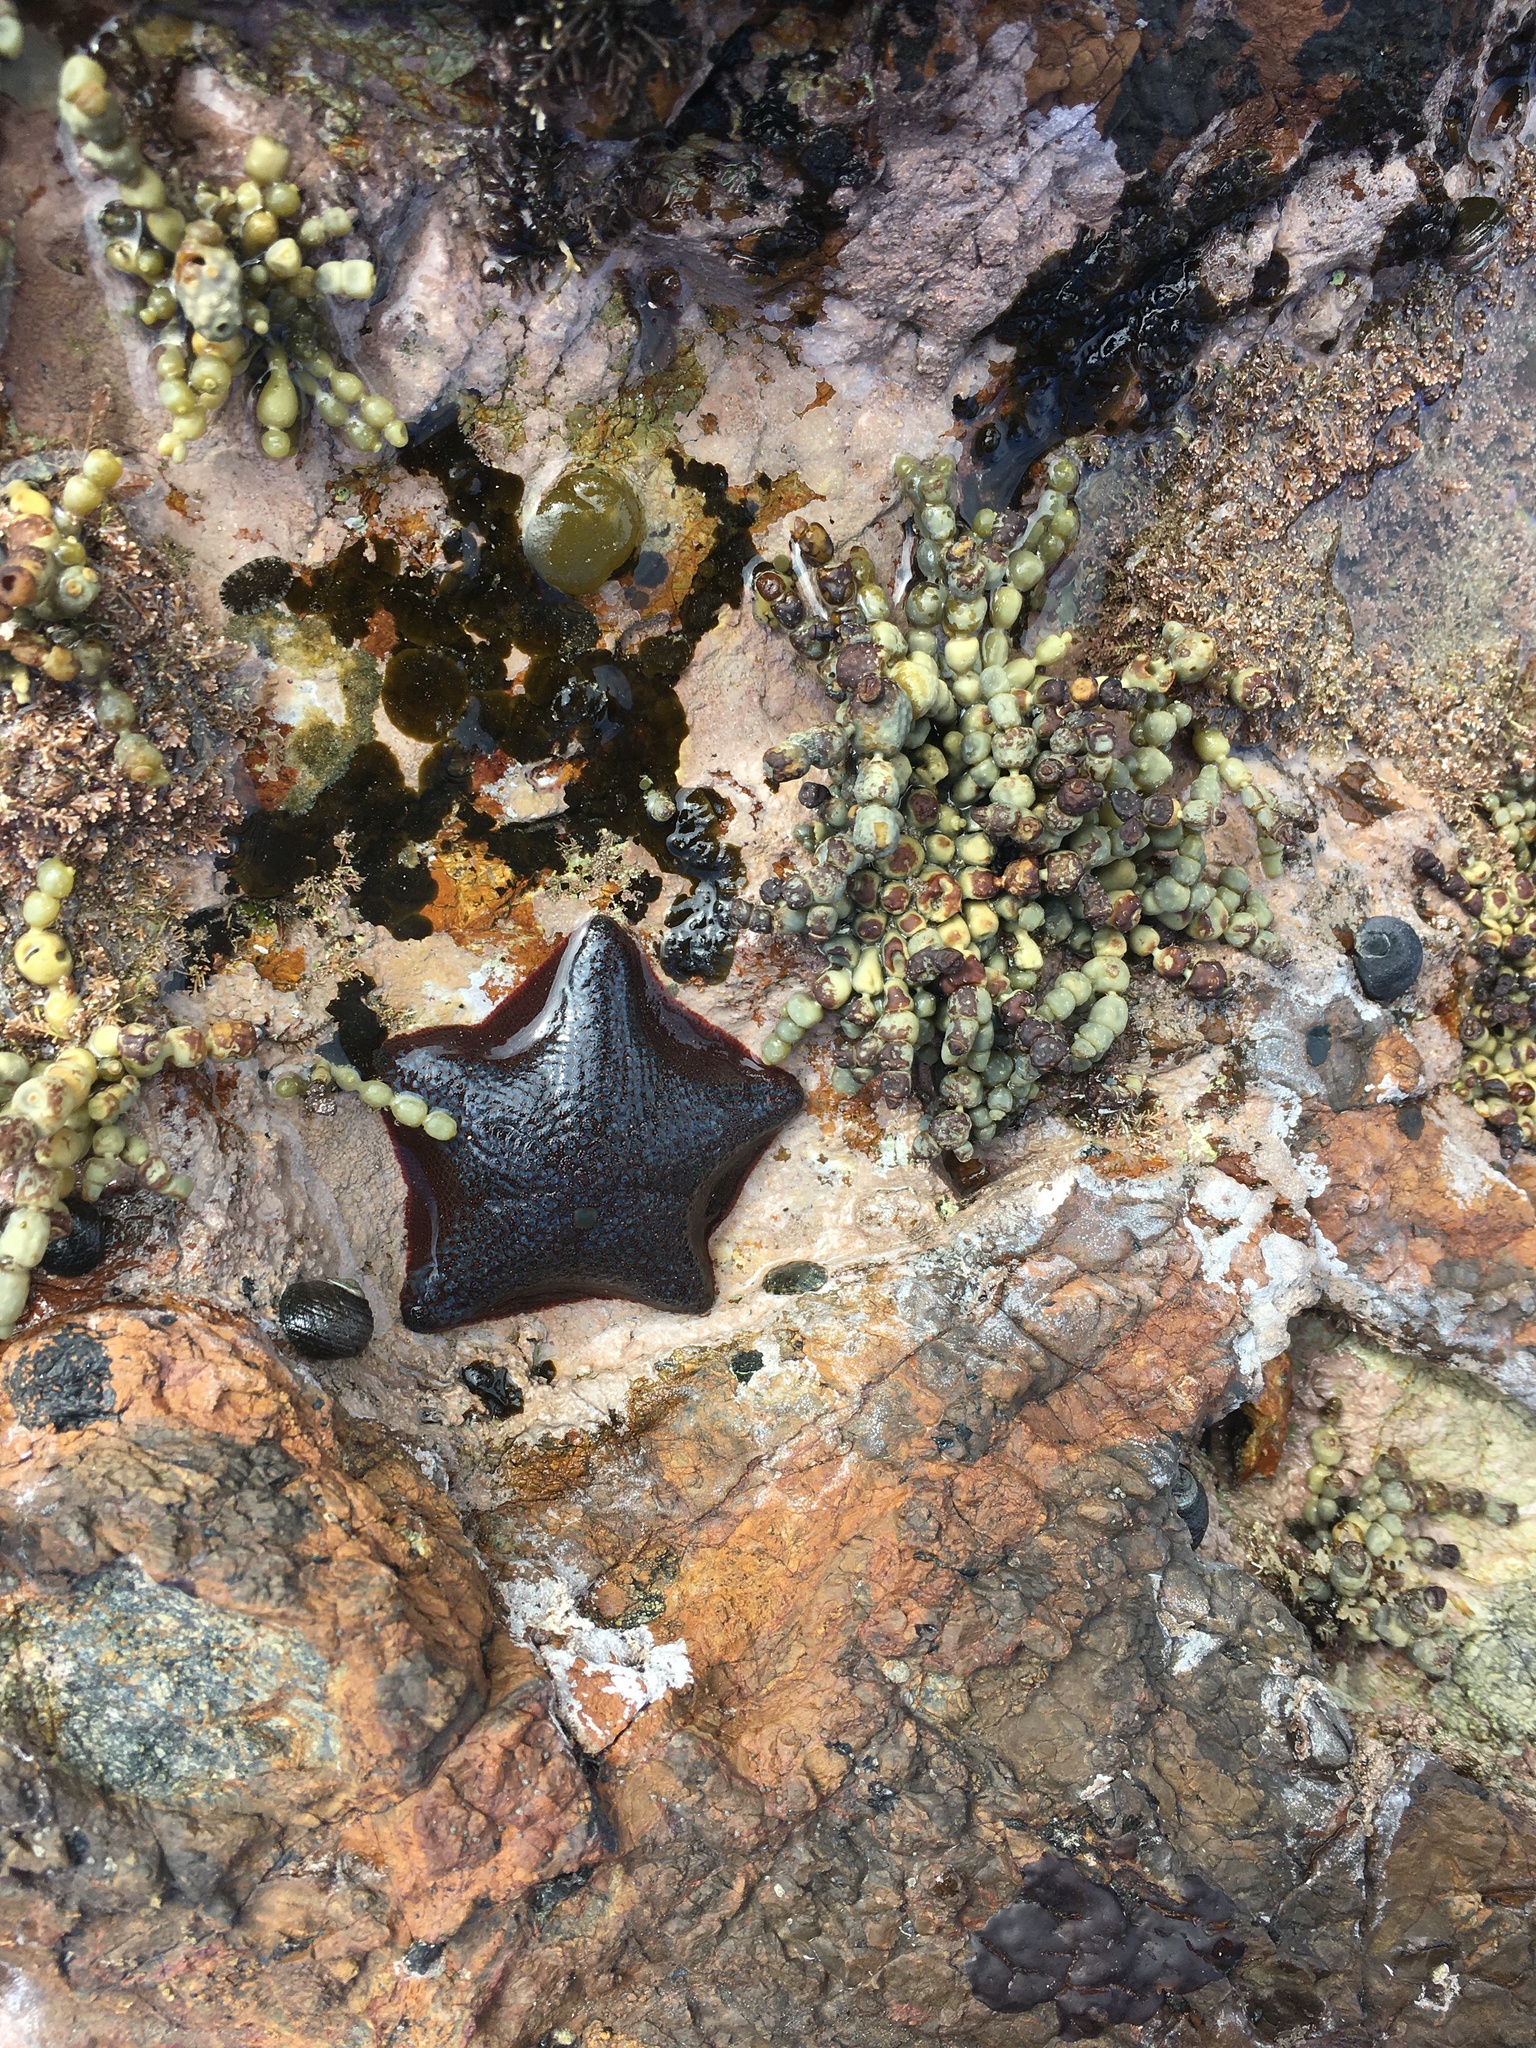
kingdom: Animalia
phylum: Echinodermata
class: Asteroidea
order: Valvatida
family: Asterinidae
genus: Patiriella
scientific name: Patiriella regularis
